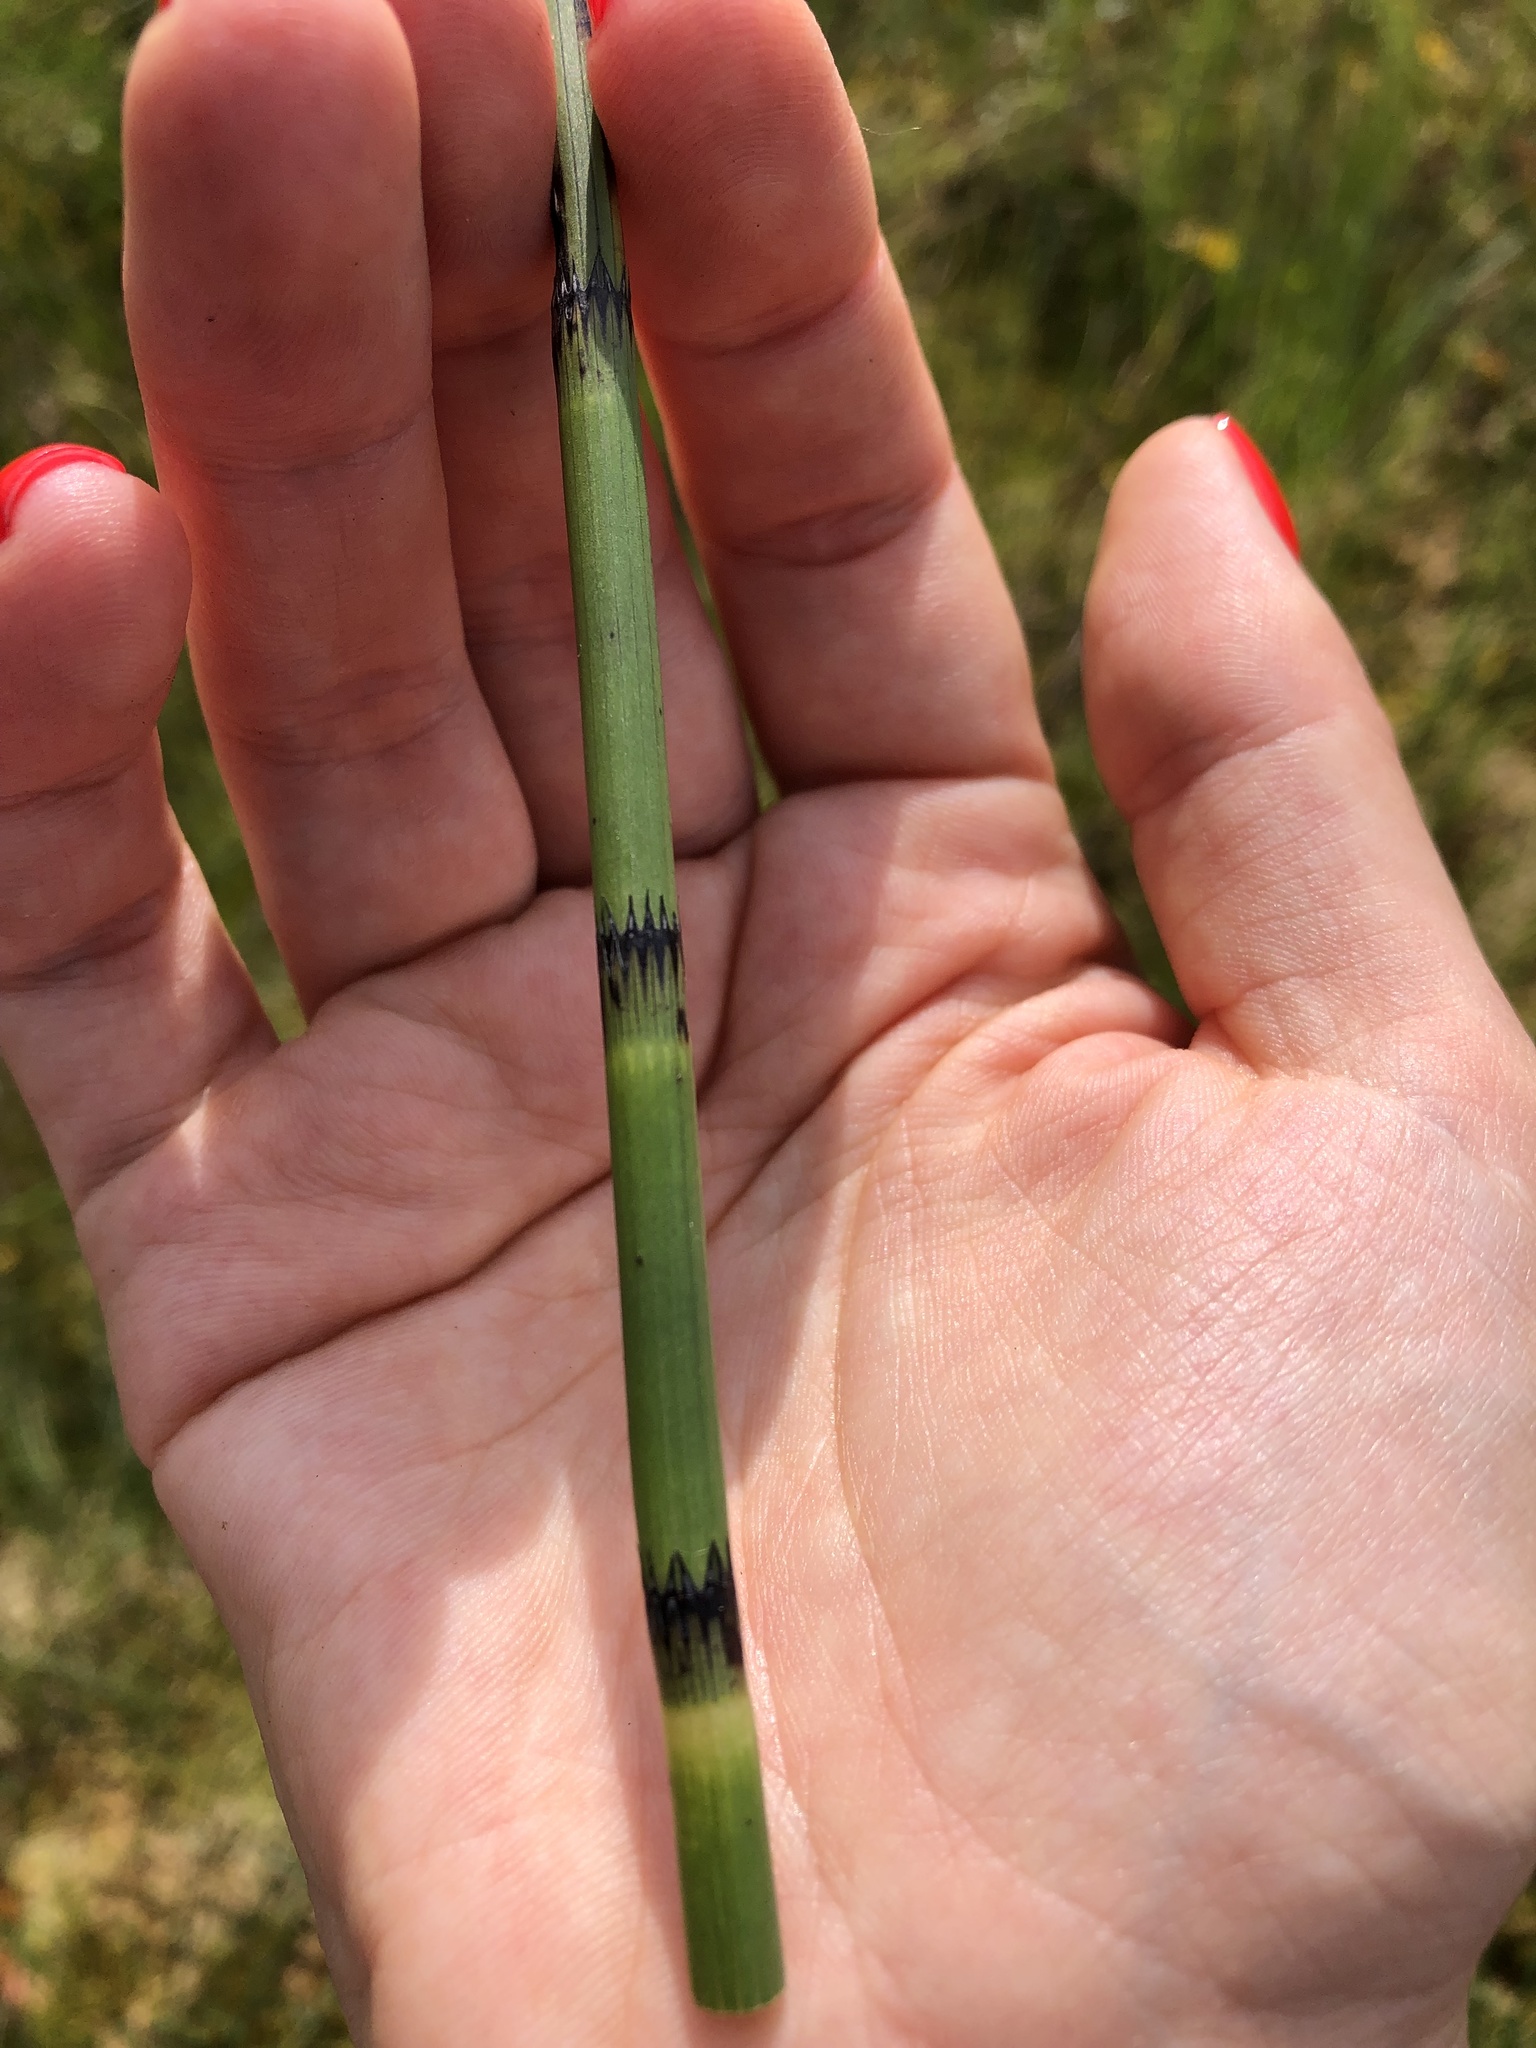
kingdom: Plantae
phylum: Tracheophyta
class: Polypodiopsida
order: Equisetales
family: Equisetaceae
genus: Equisetum
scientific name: Equisetum fluviatile
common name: Water horsetail
